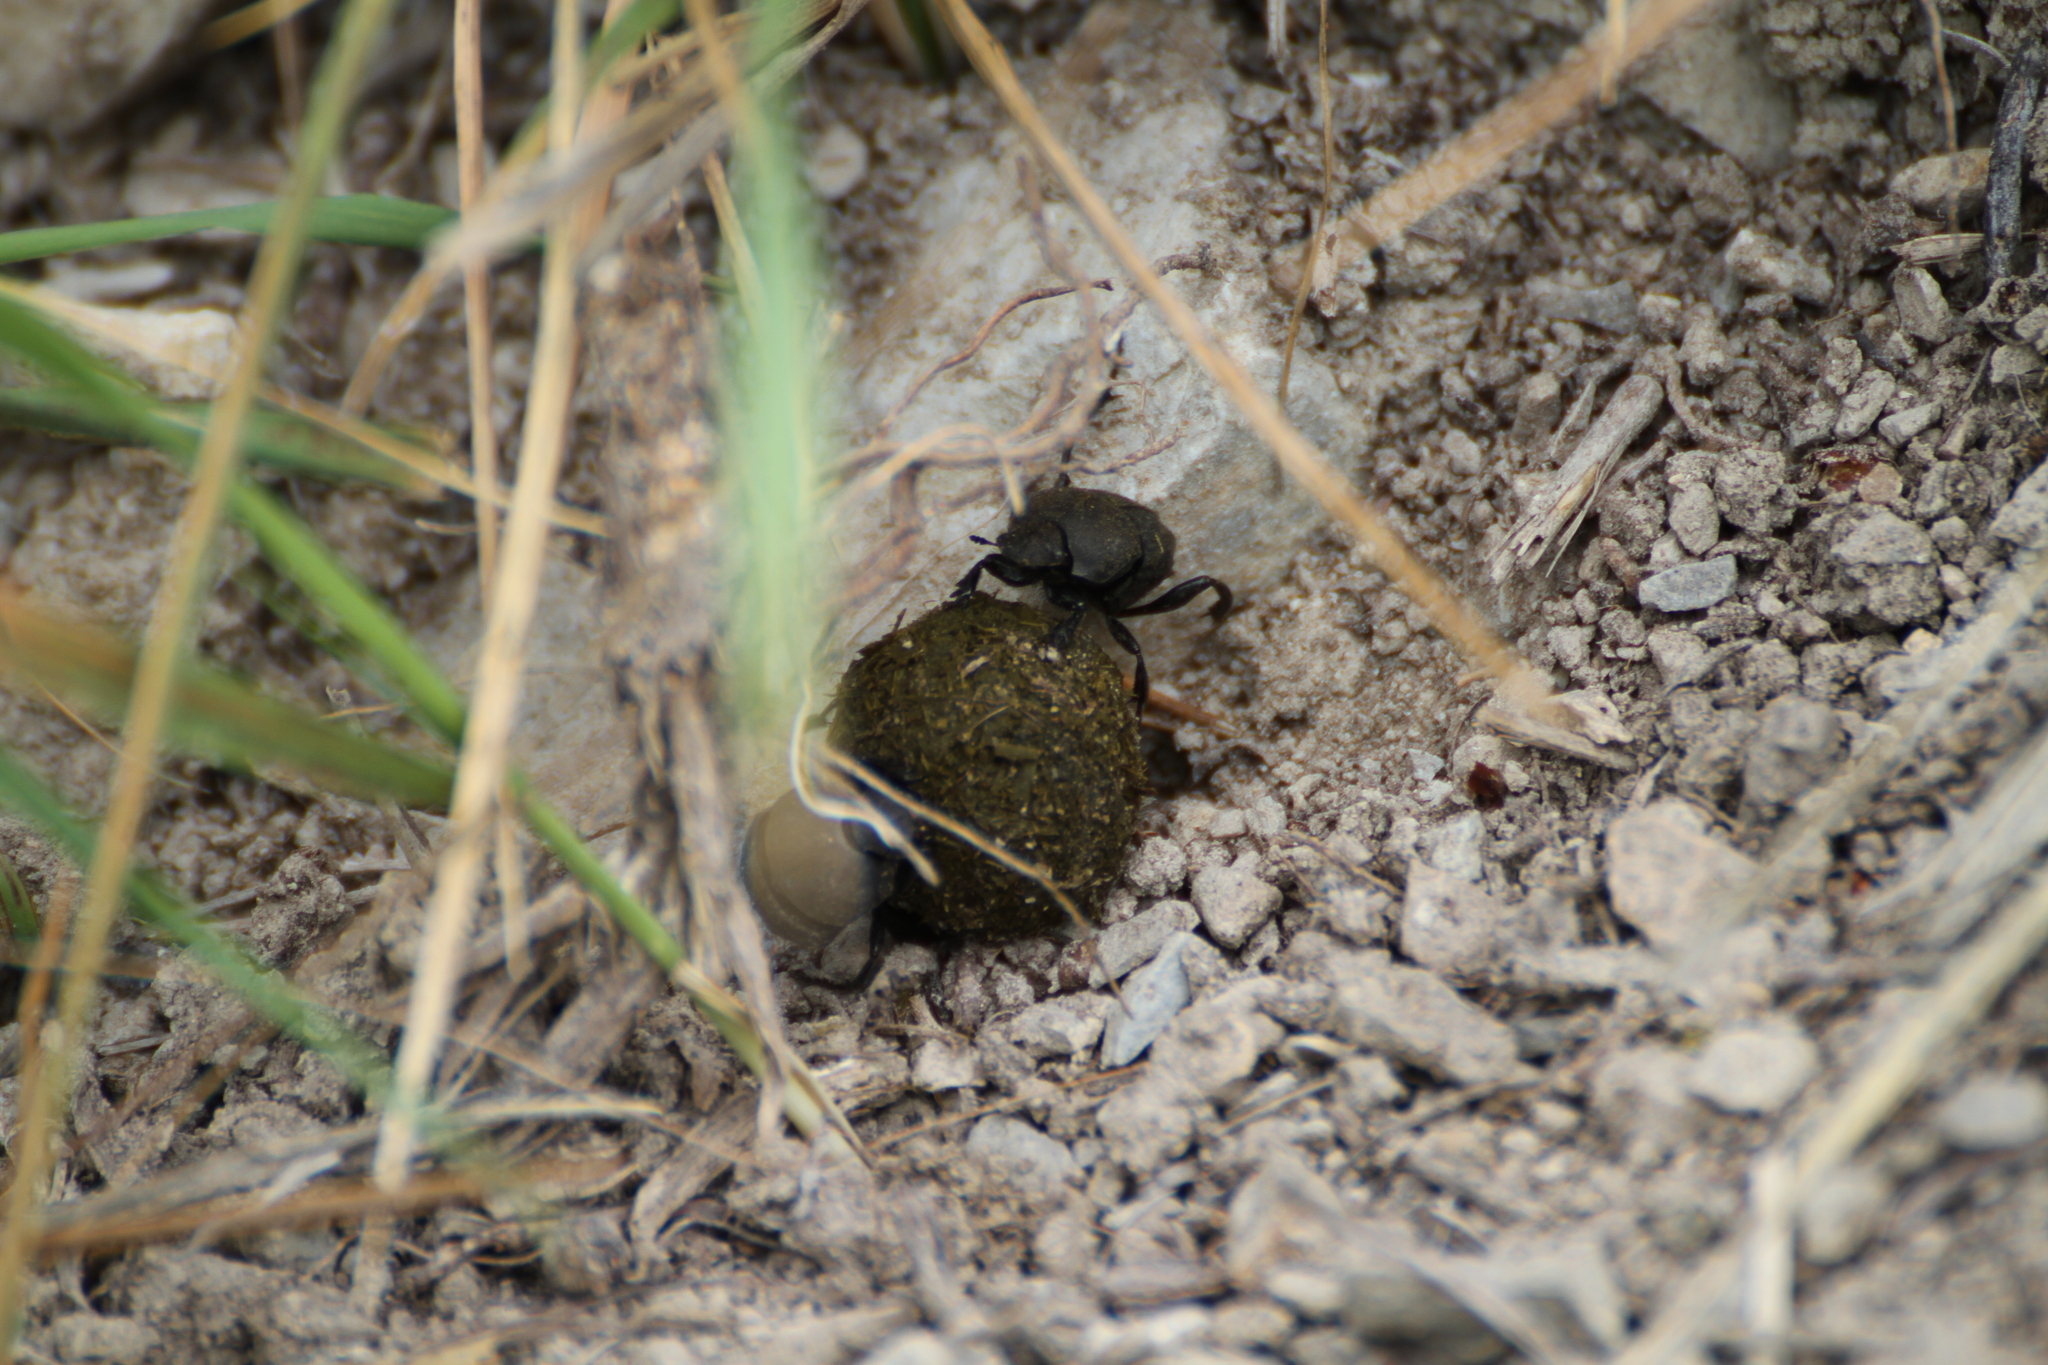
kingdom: Animalia
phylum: Arthropoda
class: Insecta
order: Coleoptera
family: Scarabaeidae
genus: Sisyphus
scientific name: Sisyphus schaefferi
